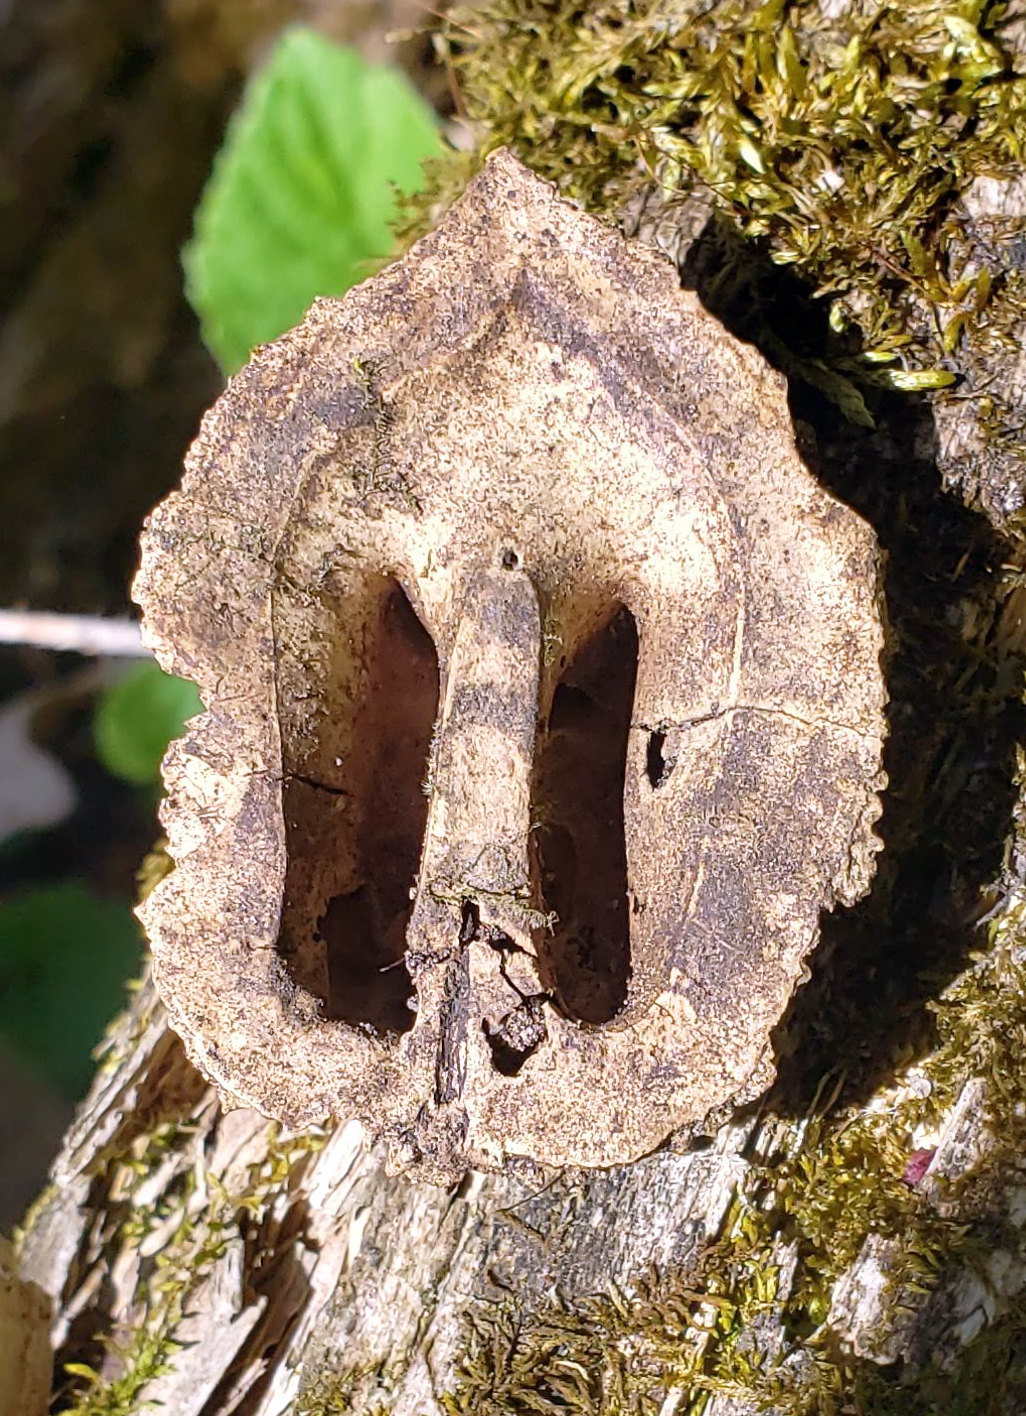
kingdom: Plantae
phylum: Tracheophyta
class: Magnoliopsida
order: Fagales
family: Juglandaceae
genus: Juglans
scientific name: Juglans cinerea
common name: Butternut
